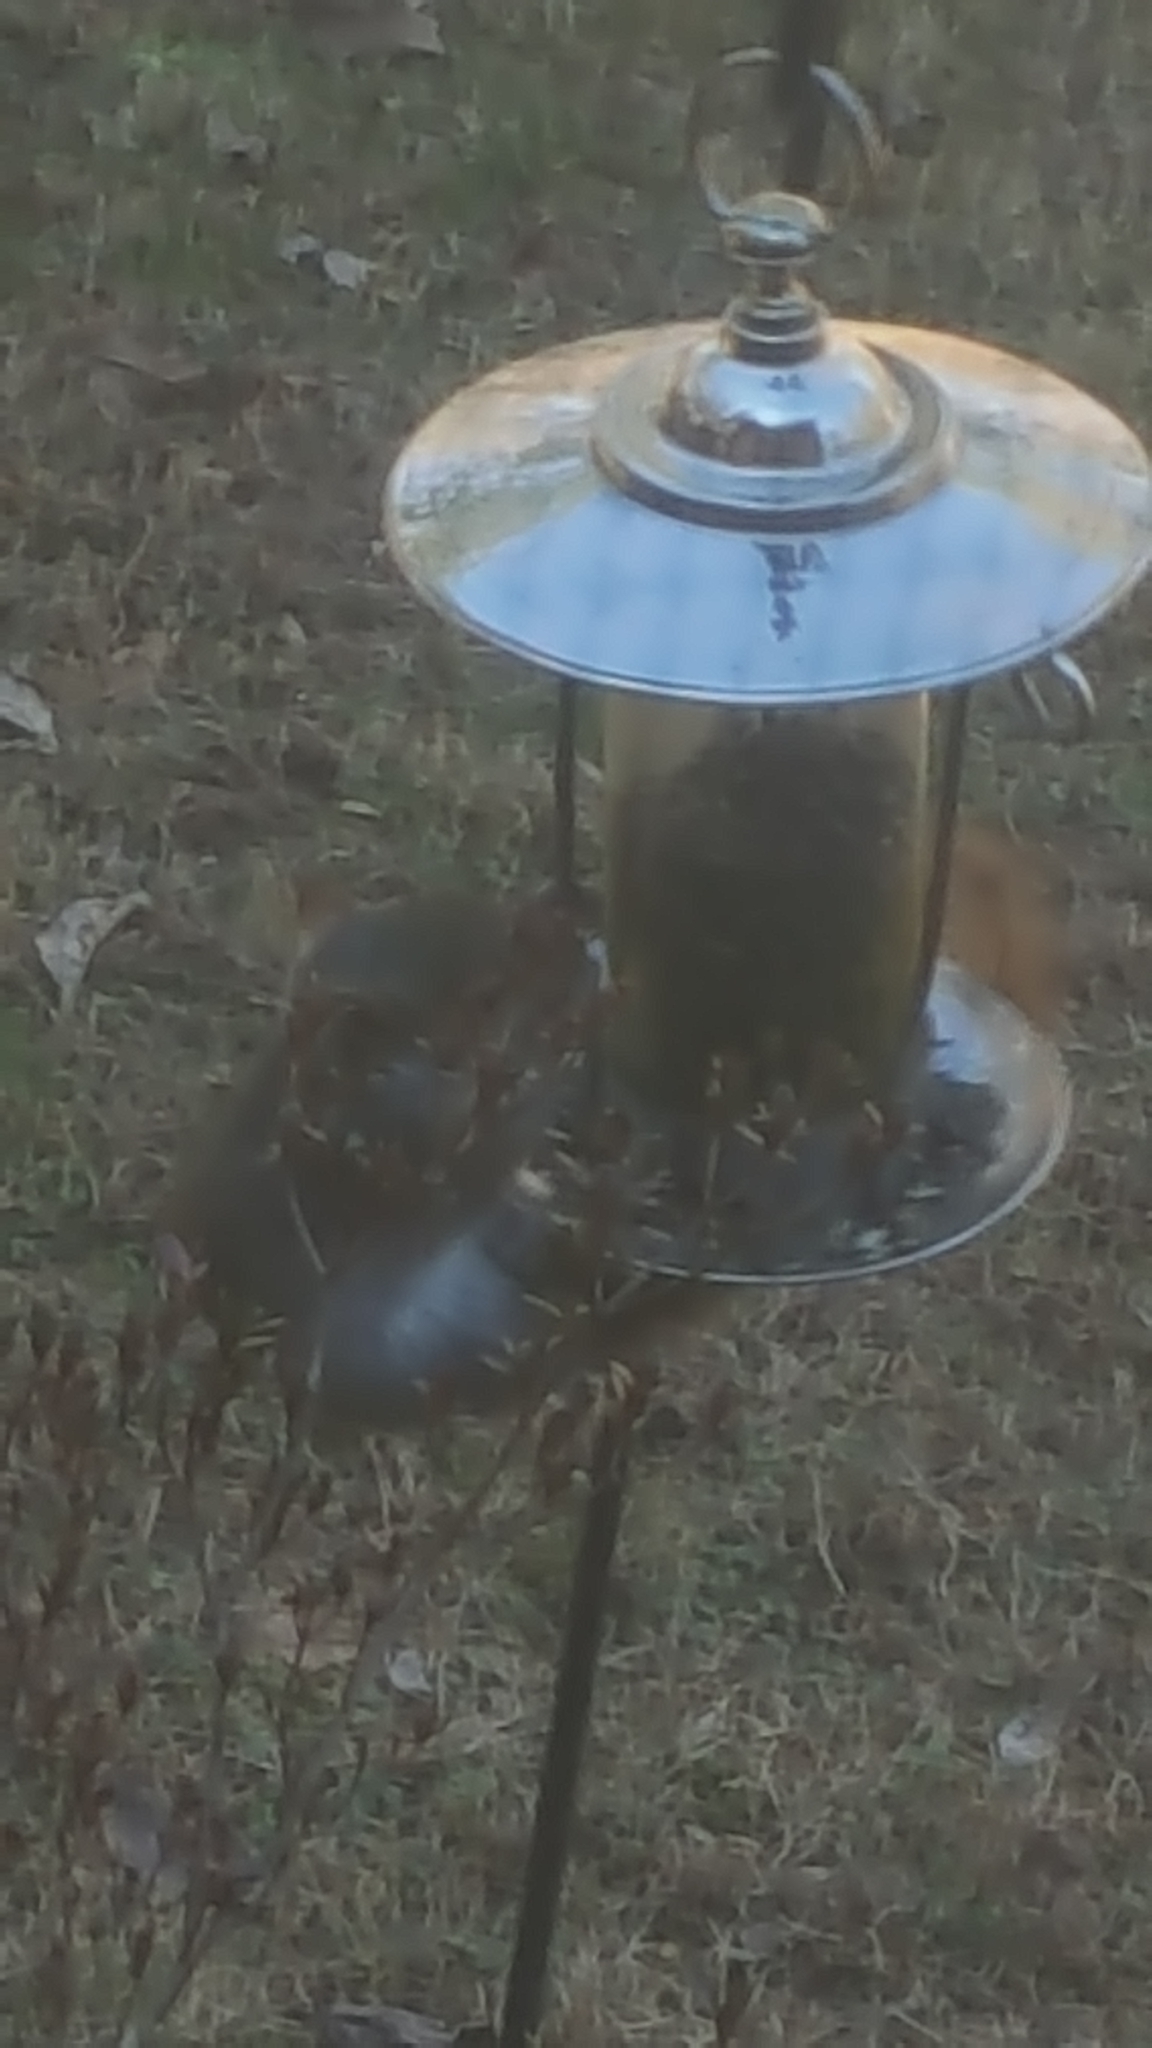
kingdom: Animalia
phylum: Chordata
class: Mammalia
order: Rodentia
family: Sciuridae
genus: Sciurus
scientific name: Sciurus carolinensis
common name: Eastern gray squirrel
